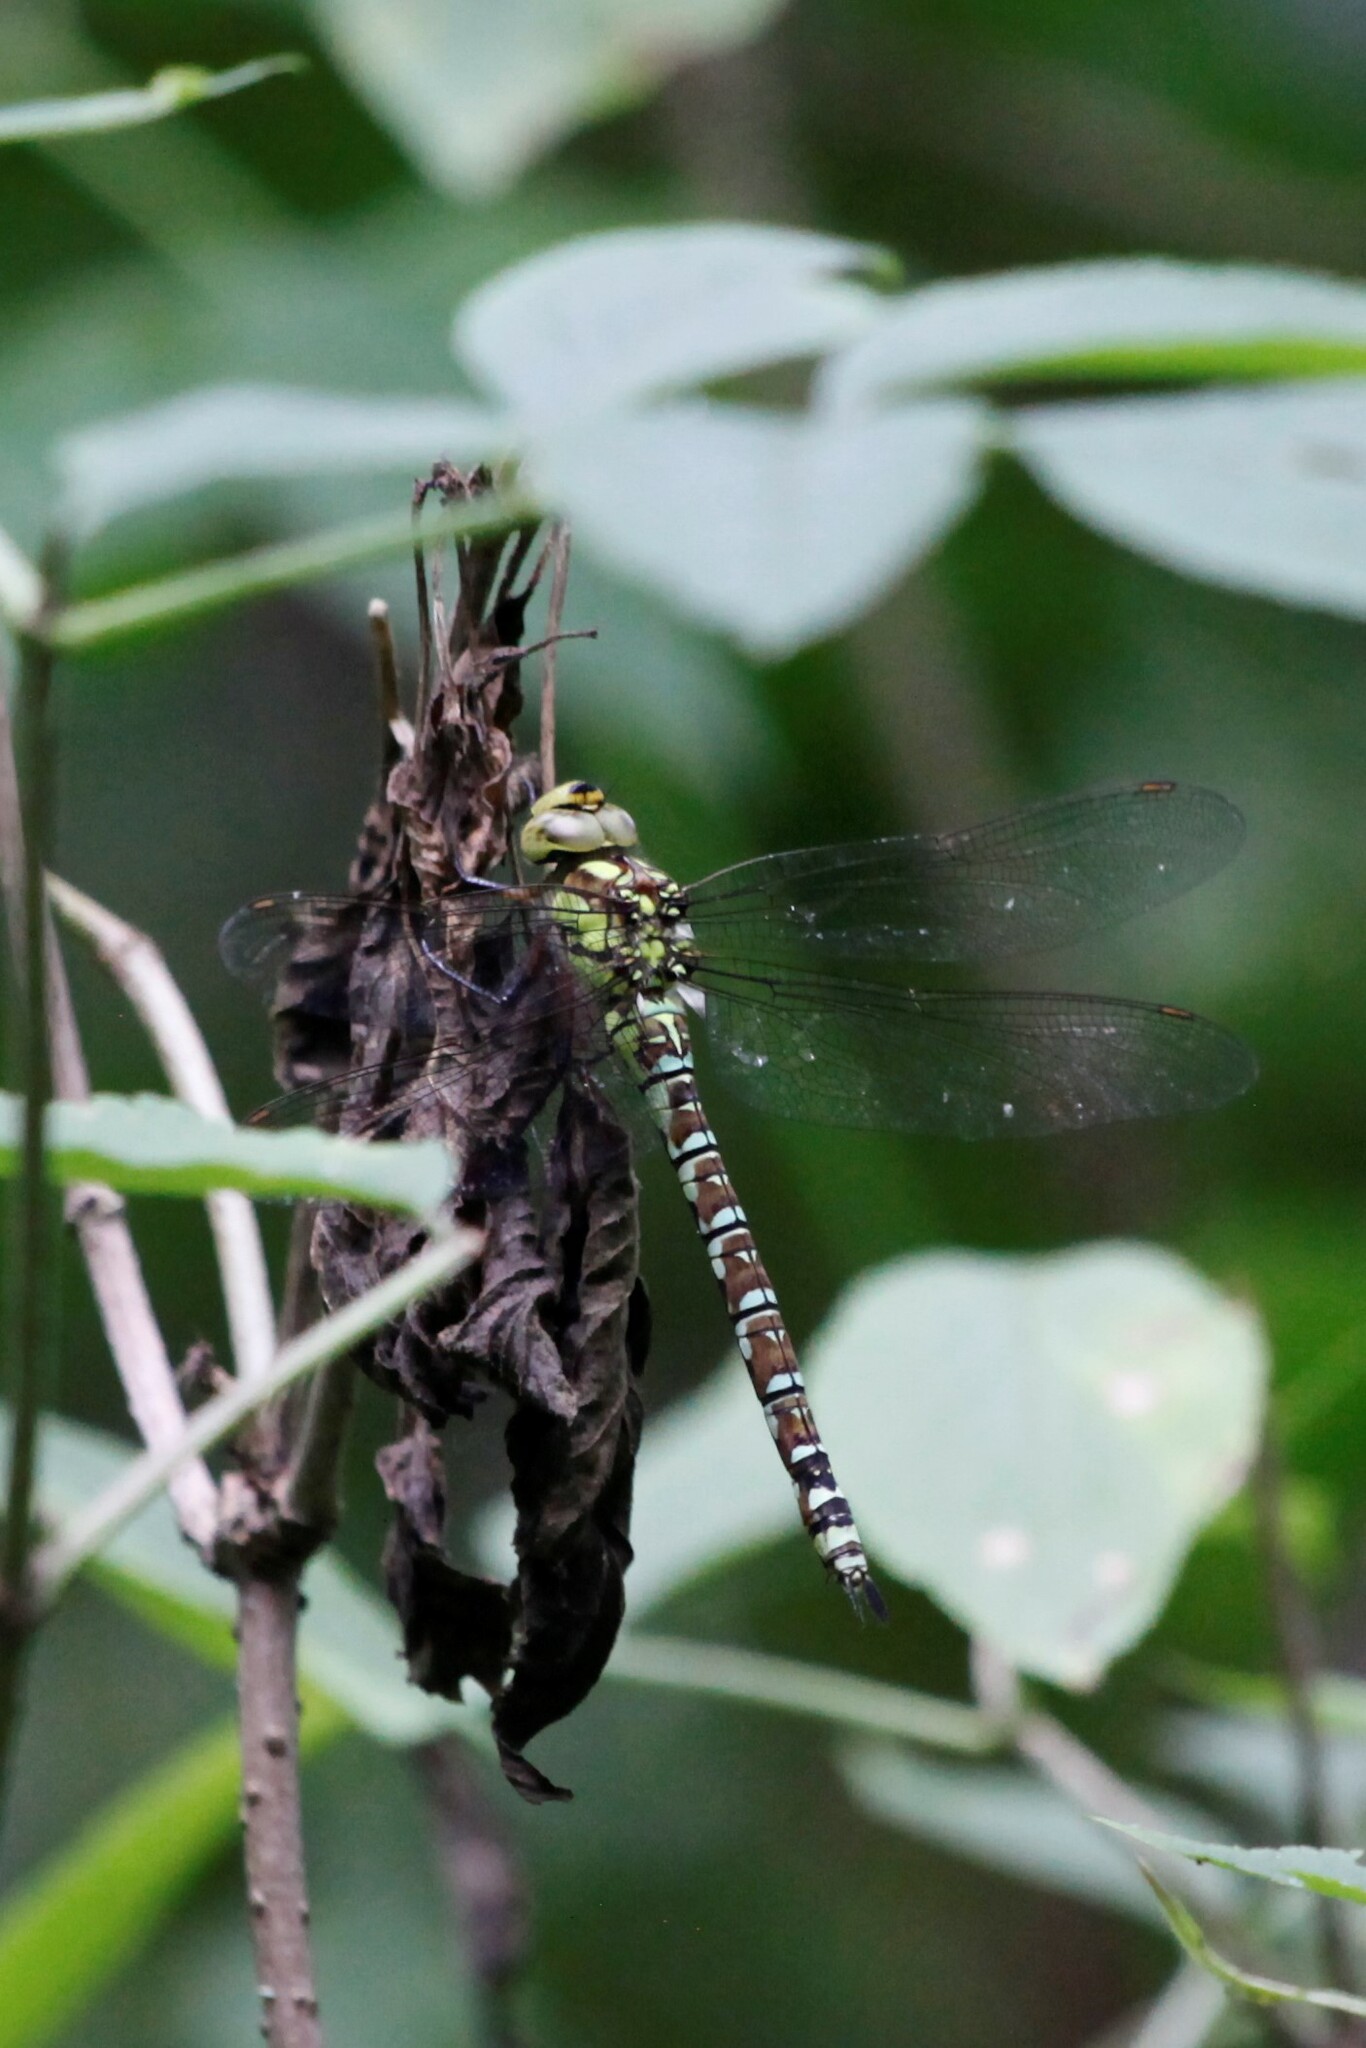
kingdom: Animalia
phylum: Arthropoda
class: Insecta
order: Odonata
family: Aeshnidae
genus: Aeshna
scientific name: Aeshna cyanea
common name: Southern hawker
